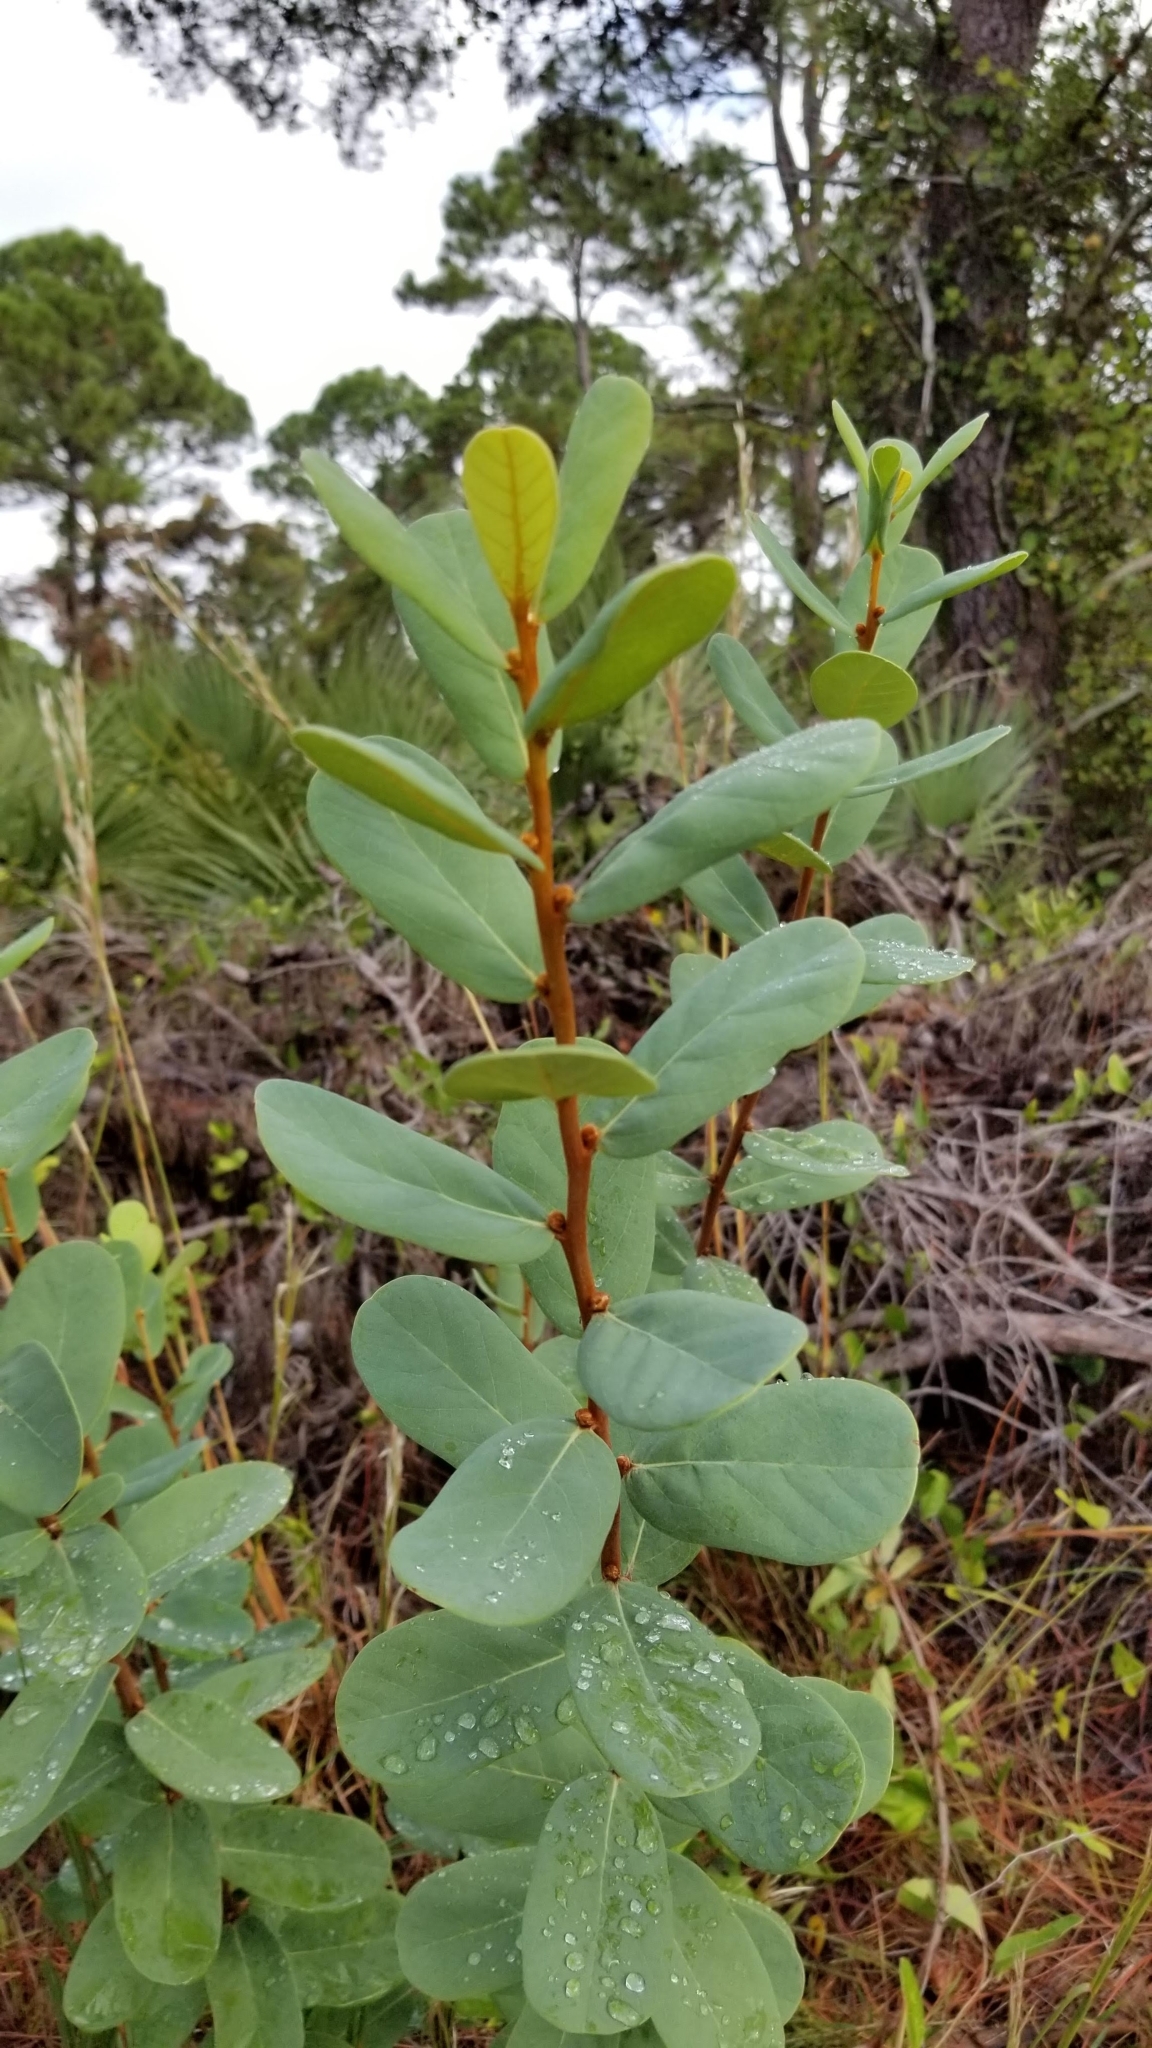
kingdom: Plantae
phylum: Tracheophyta
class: Magnoliopsida
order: Magnoliales
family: Annonaceae
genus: Asimina
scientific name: Asimina reticulata
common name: Flag pawpaw
